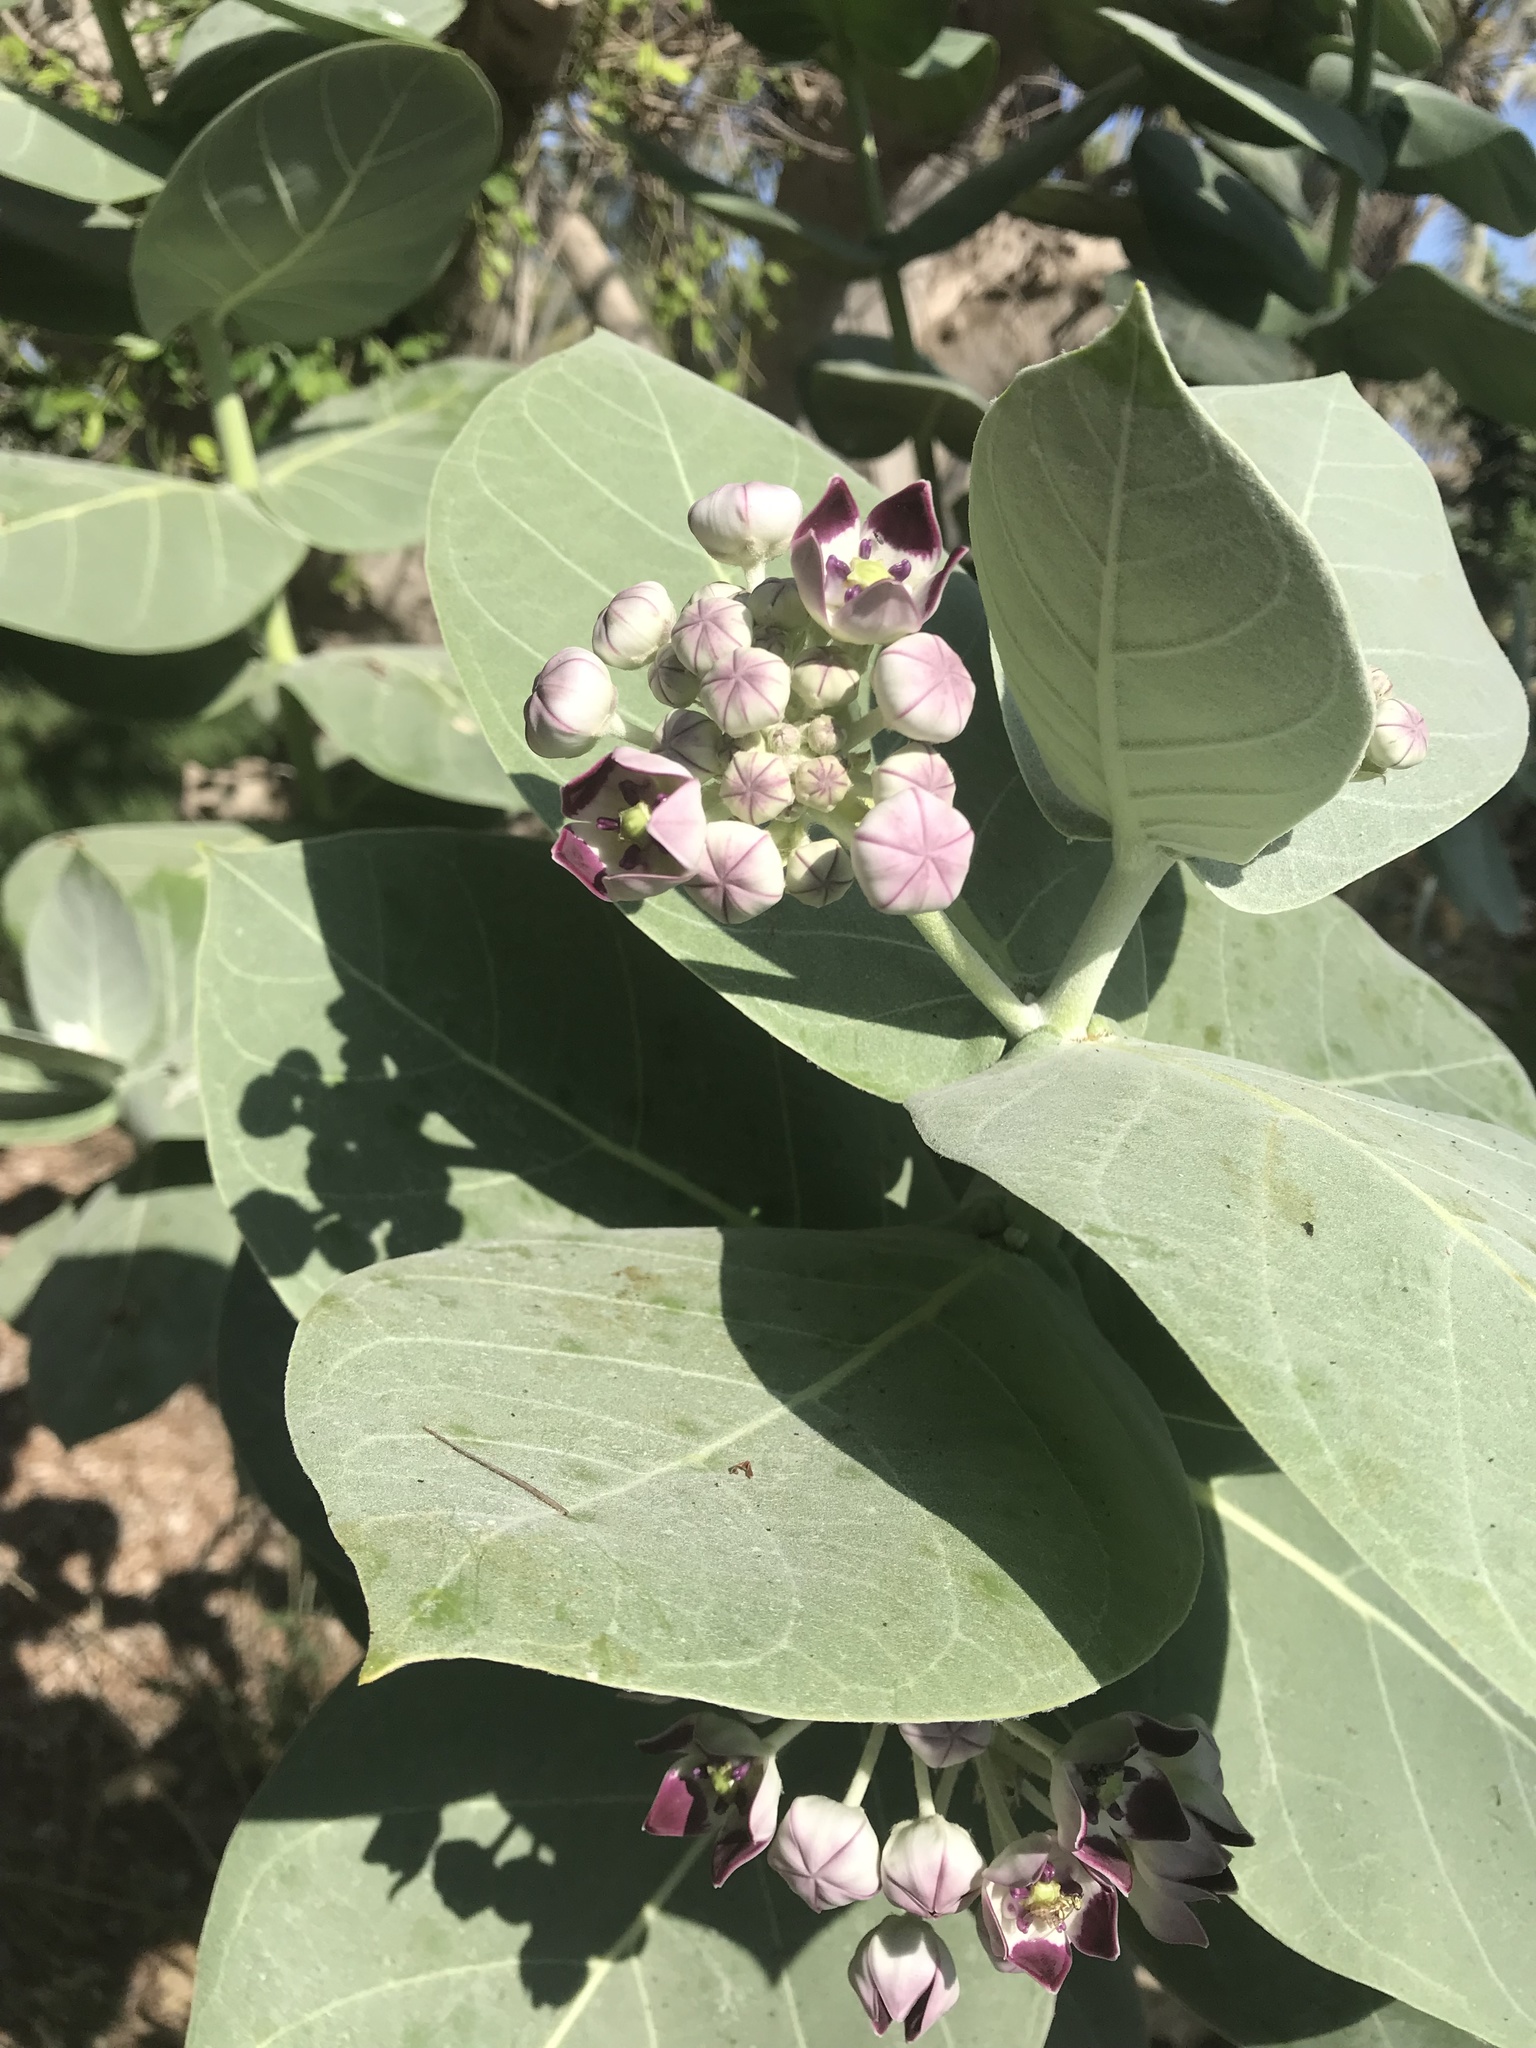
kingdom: Plantae
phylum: Tracheophyta
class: Magnoliopsida
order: Gentianales
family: Apocynaceae
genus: Calotropis
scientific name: Calotropis procera
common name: Roostertree
